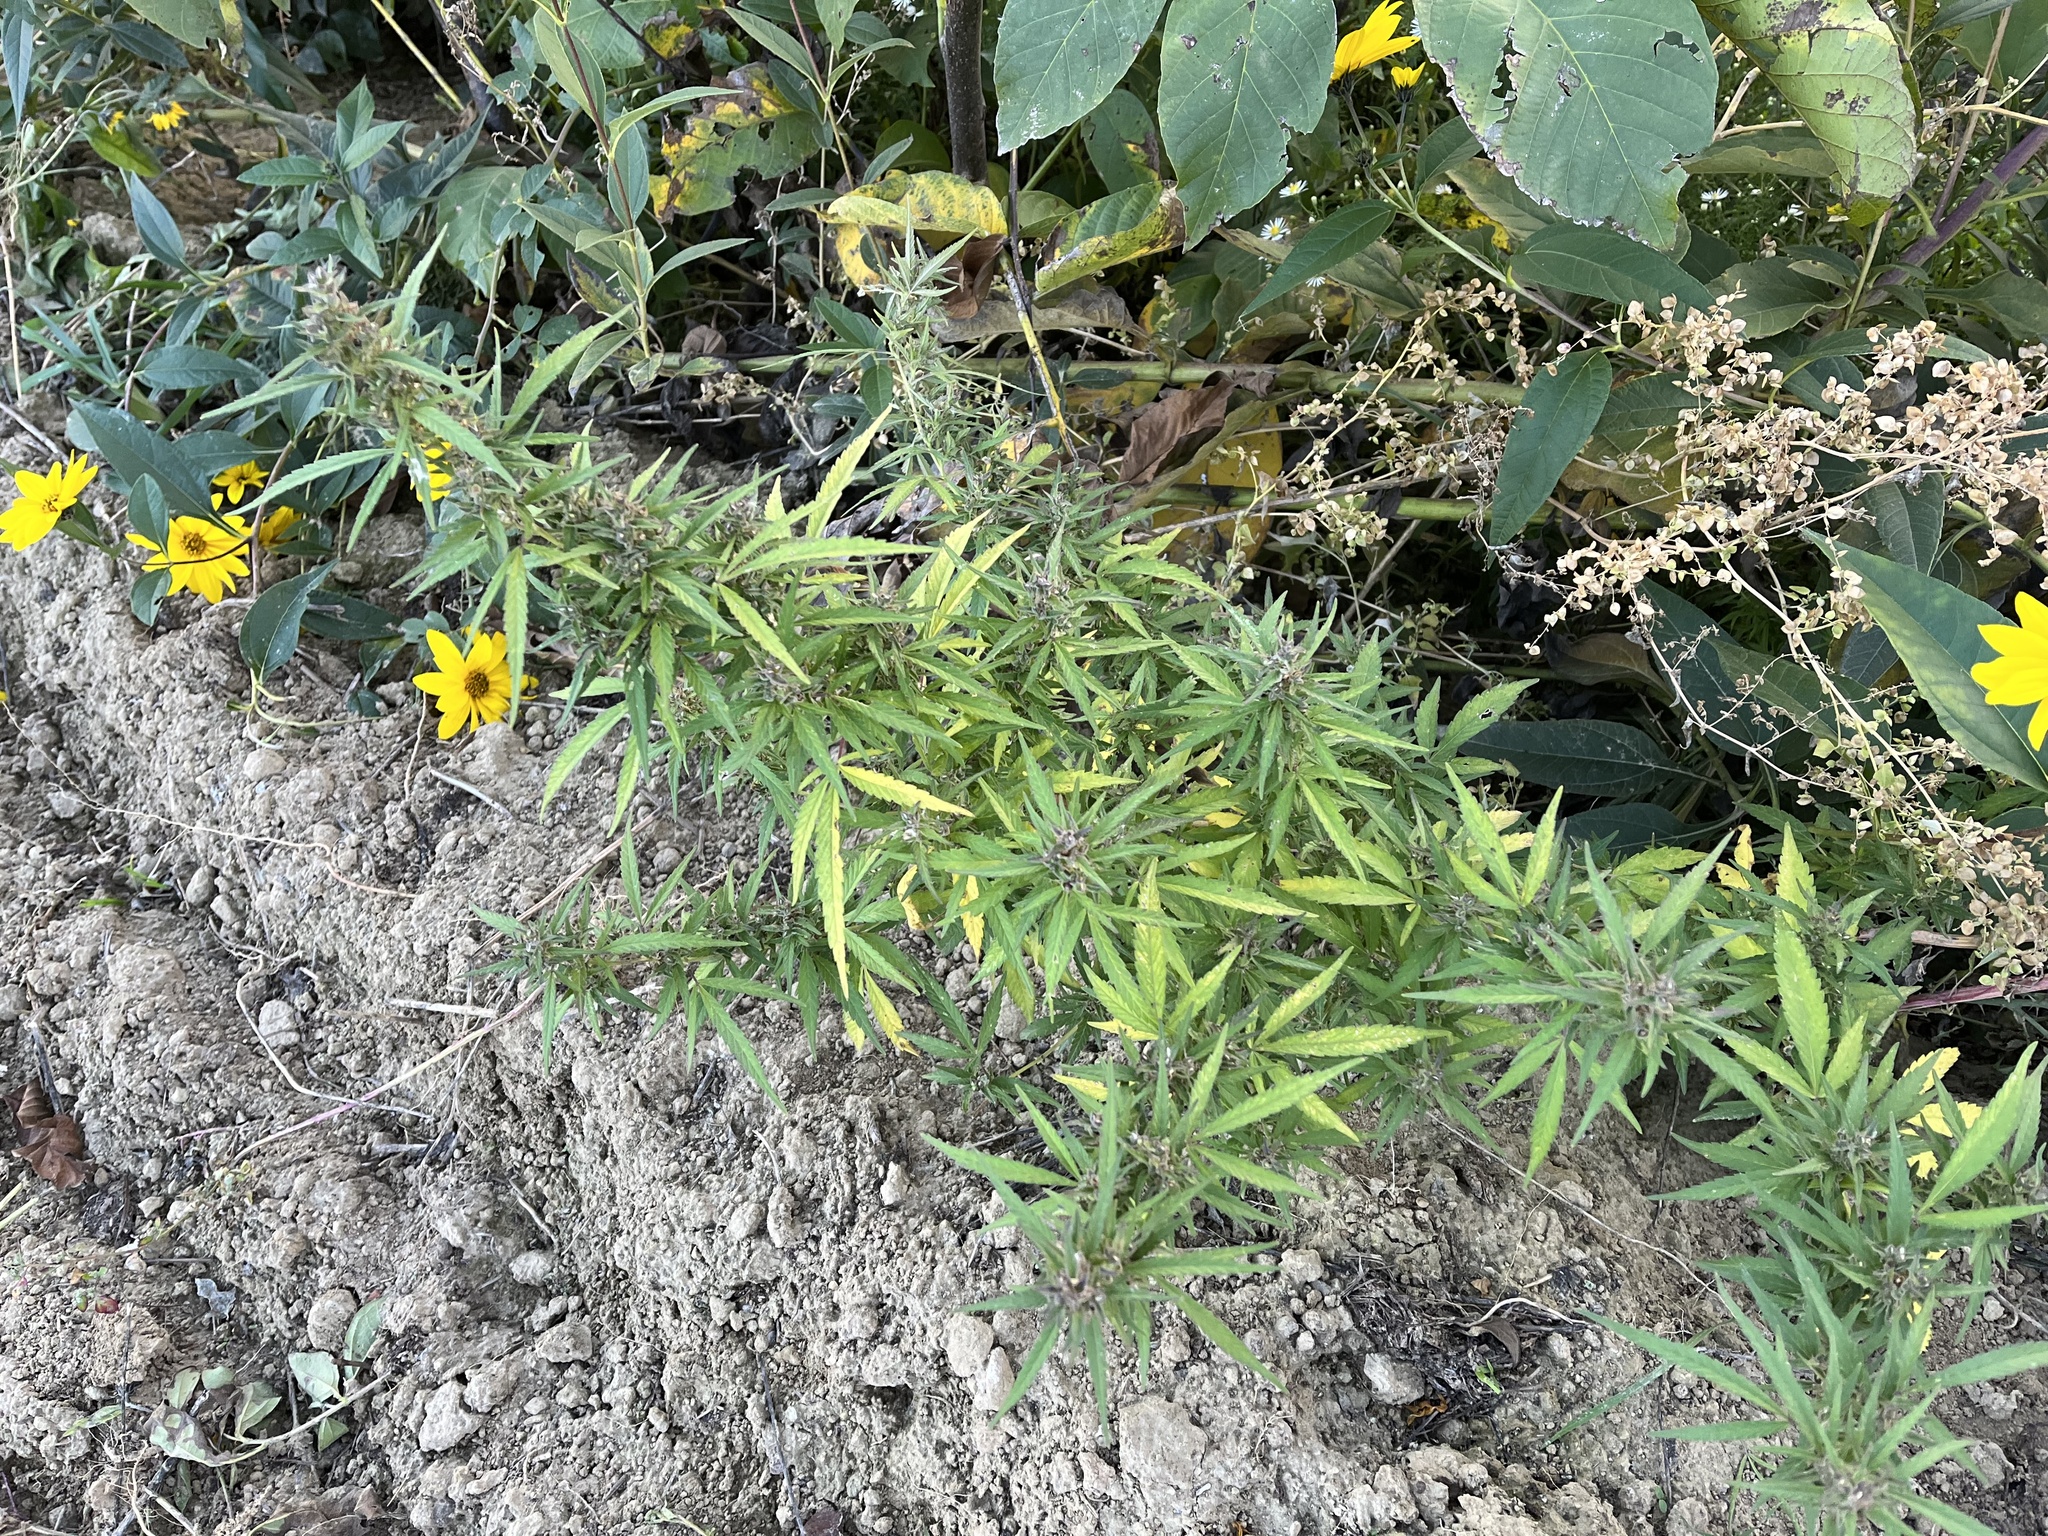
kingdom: Plantae
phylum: Tracheophyta
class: Magnoliopsida
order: Rosales
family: Cannabaceae
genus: Cannabis
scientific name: Cannabis sativa
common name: Hemp
